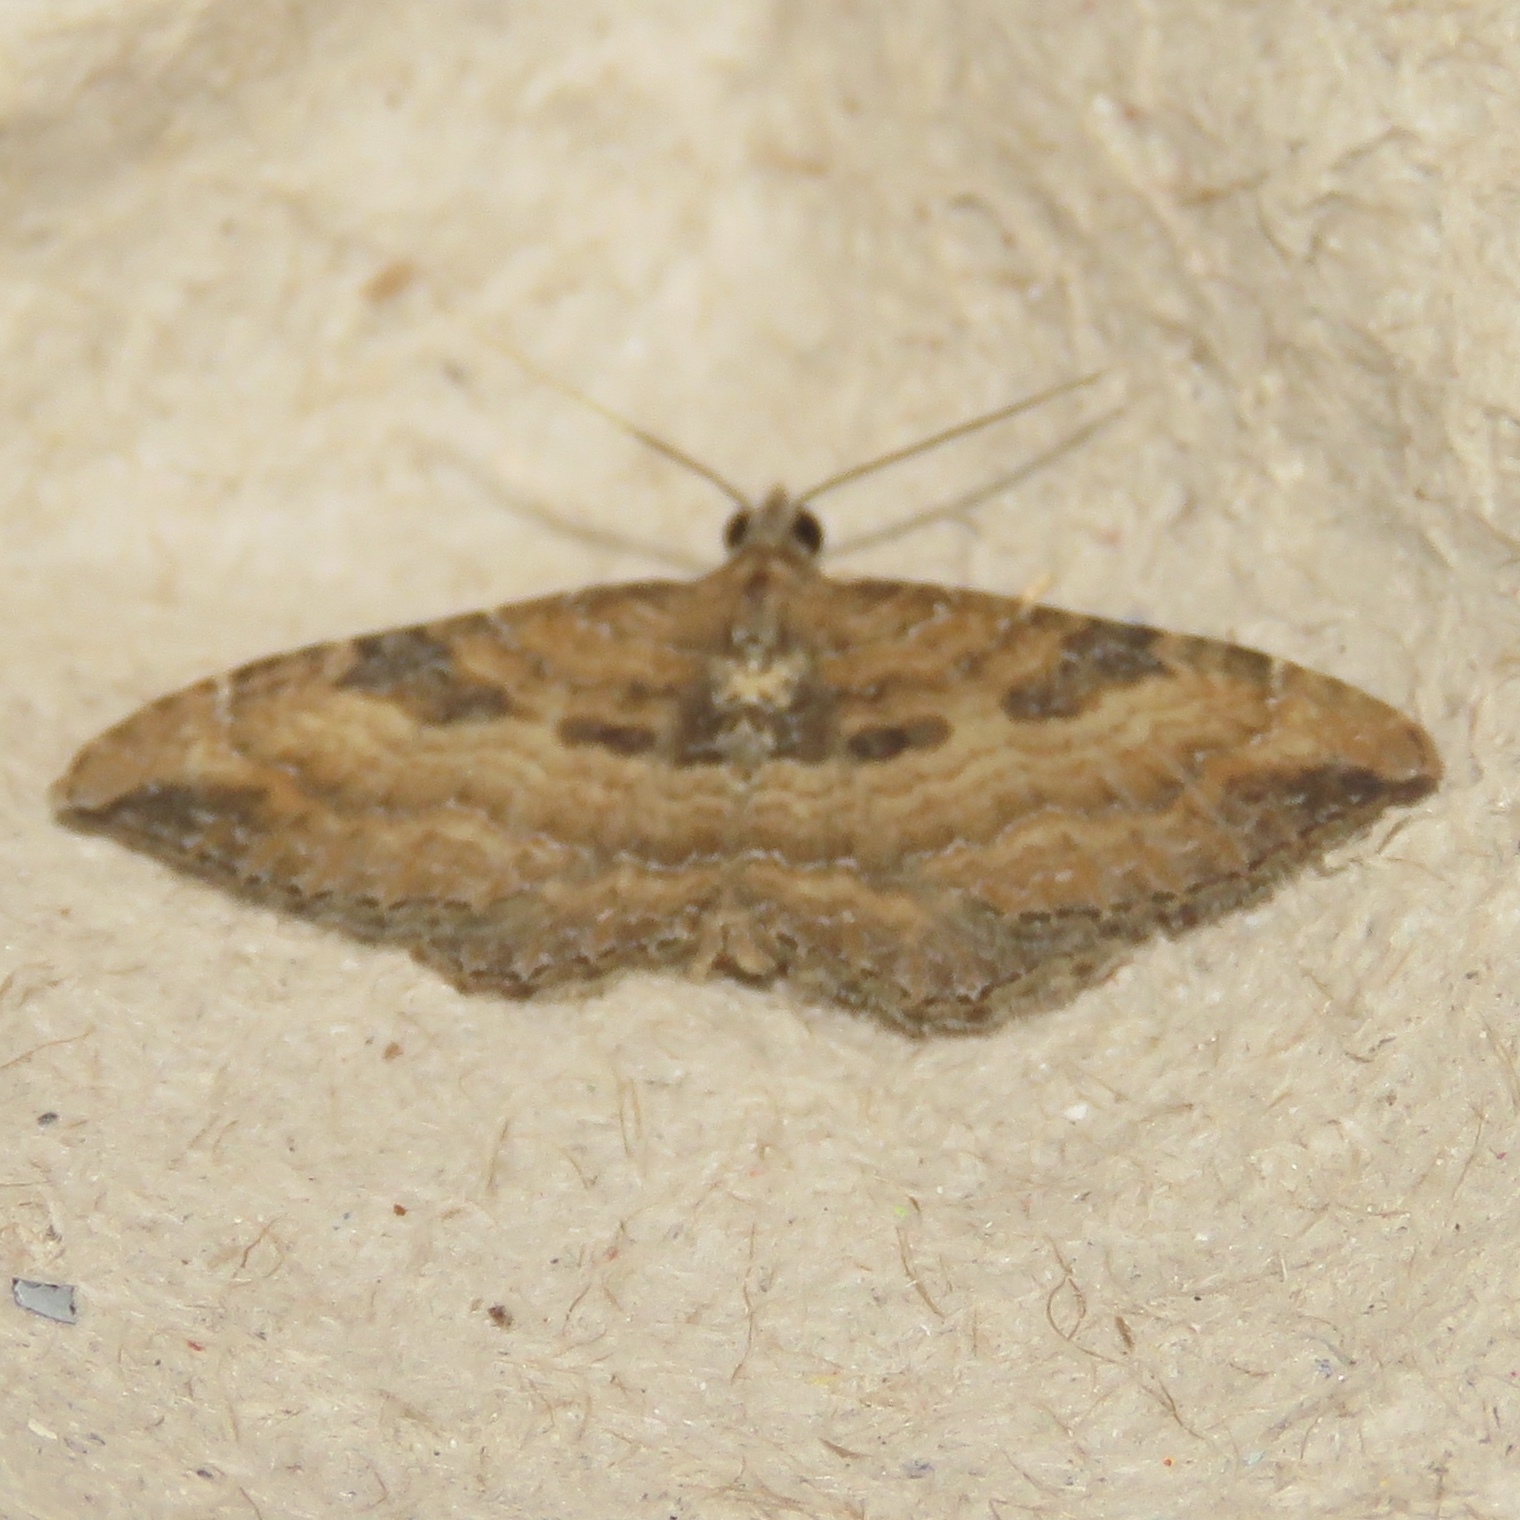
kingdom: Animalia
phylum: Arthropoda
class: Insecta
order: Lepidoptera
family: Geometridae
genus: Orthonama
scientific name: Orthonama obstipata
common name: The gem
